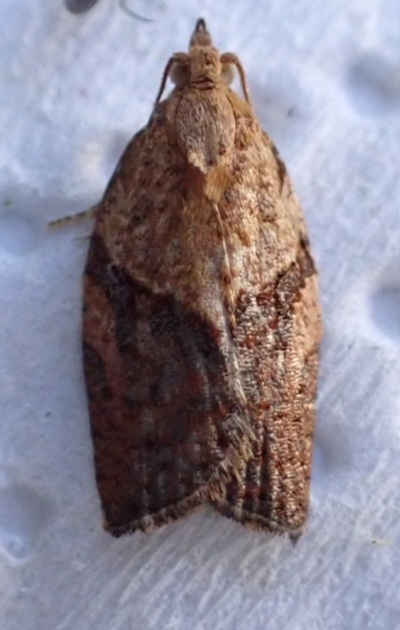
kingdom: Animalia
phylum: Arthropoda
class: Insecta
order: Lepidoptera
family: Tortricidae
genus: Epiphyas
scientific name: Epiphyas postvittana
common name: Light brown apple moth
